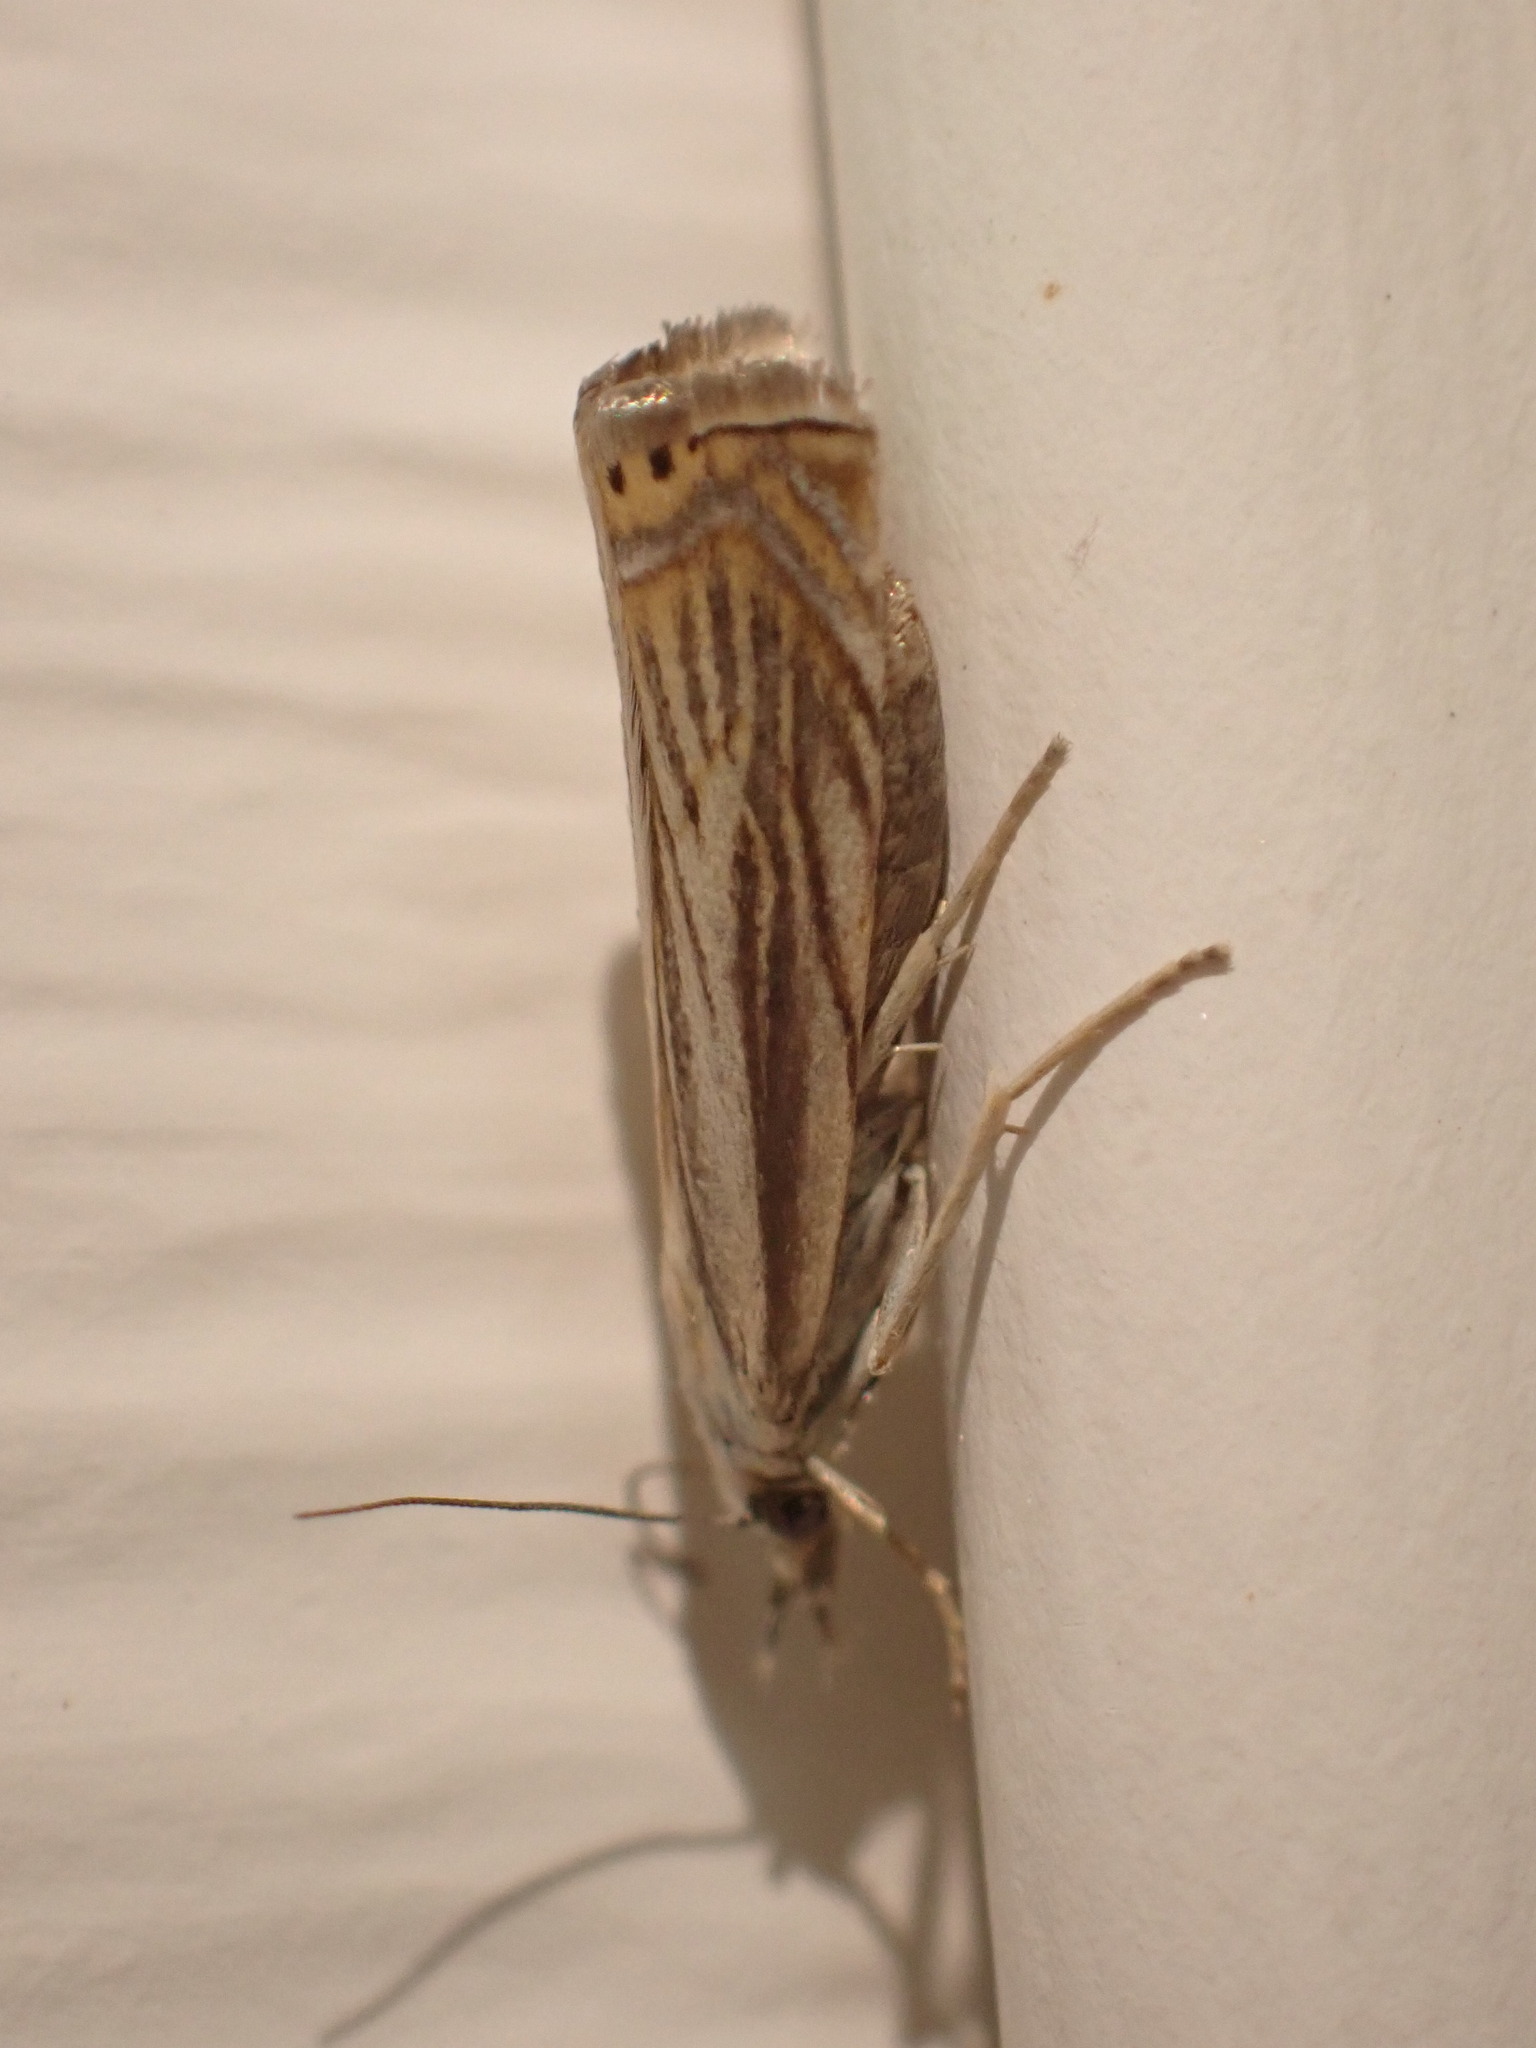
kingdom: Animalia
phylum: Arthropoda
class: Insecta
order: Lepidoptera
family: Crambidae
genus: Chrysoteuchia
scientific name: Chrysoteuchia topiarius
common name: Topiary grass-veneer
